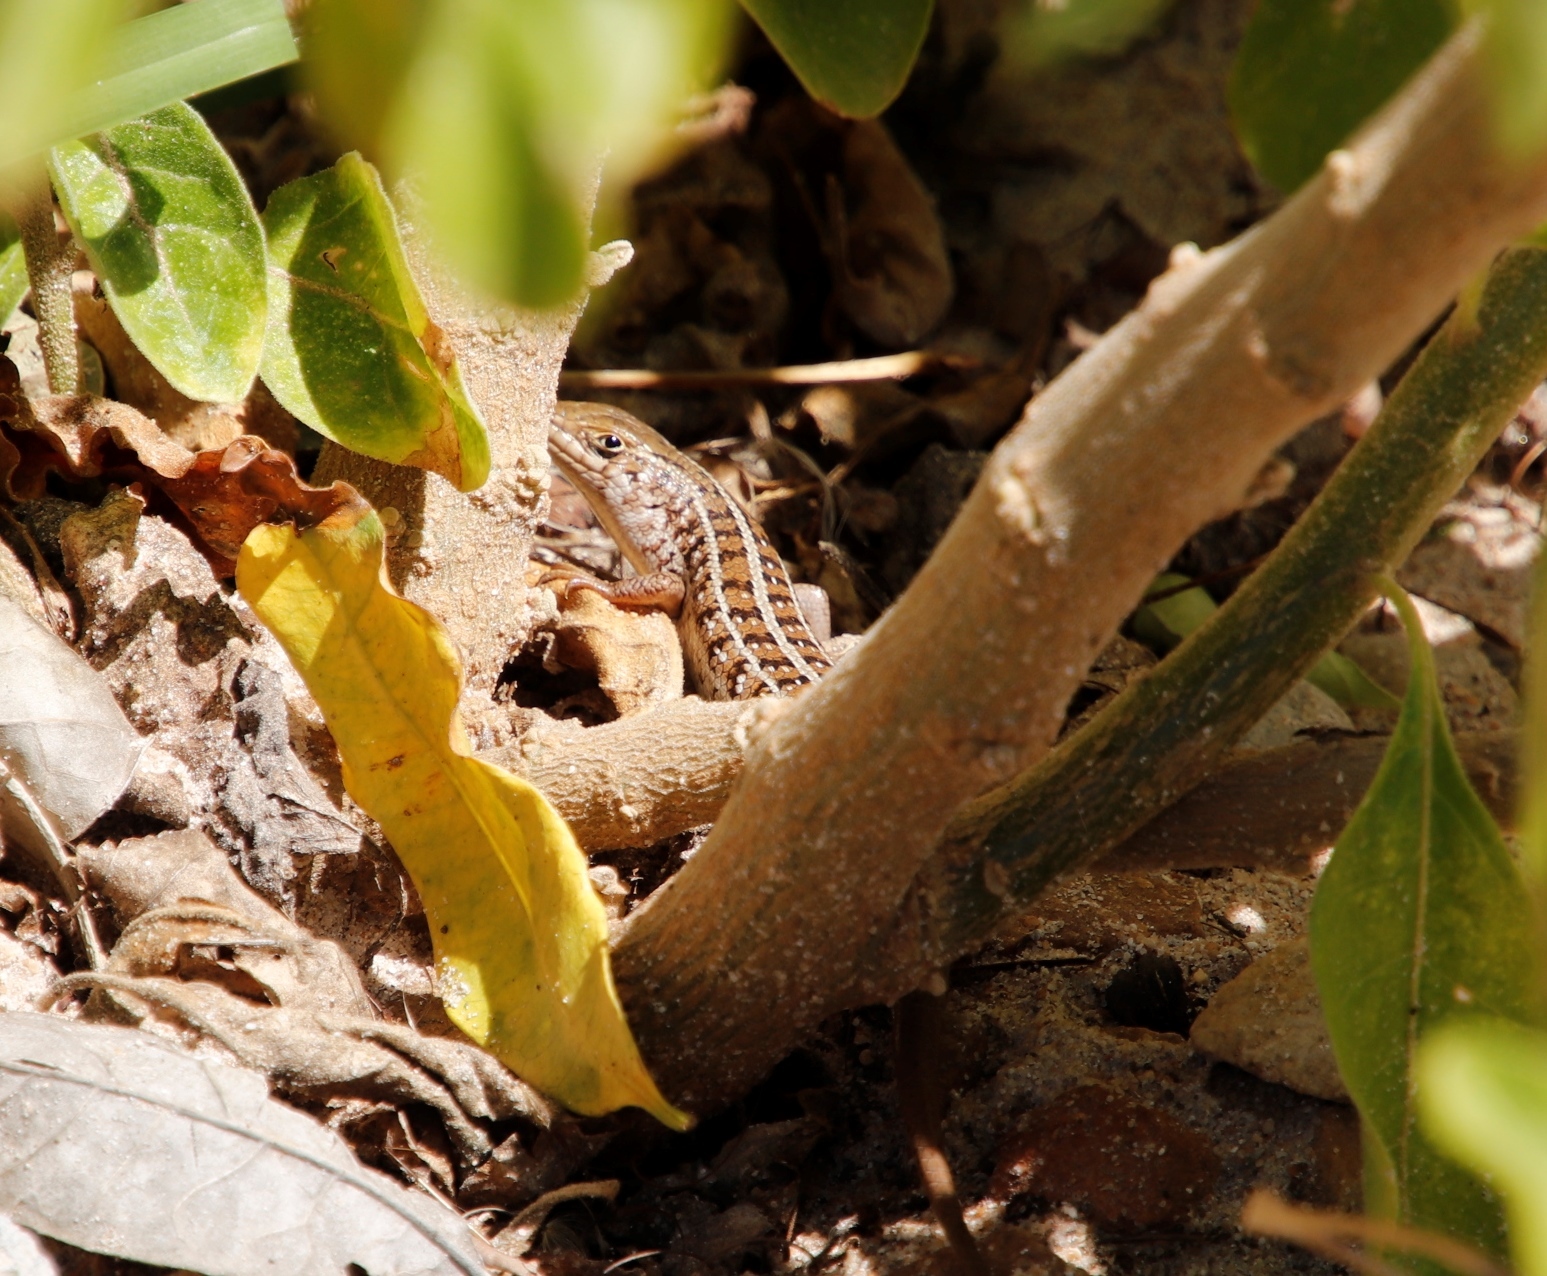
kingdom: Animalia
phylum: Chordata
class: Squamata
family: Scincidae
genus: Trachylepis
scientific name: Trachylepis capensis
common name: Cape skink
